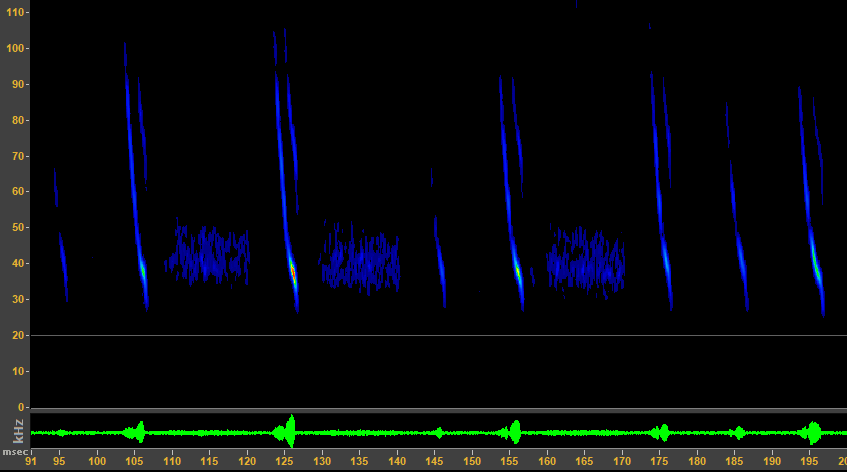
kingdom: Animalia
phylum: Chordata
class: Mammalia
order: Chiroptera
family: Vespertilionidae
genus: Myotis
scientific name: Myotis evotis
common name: Long-eared myotis
